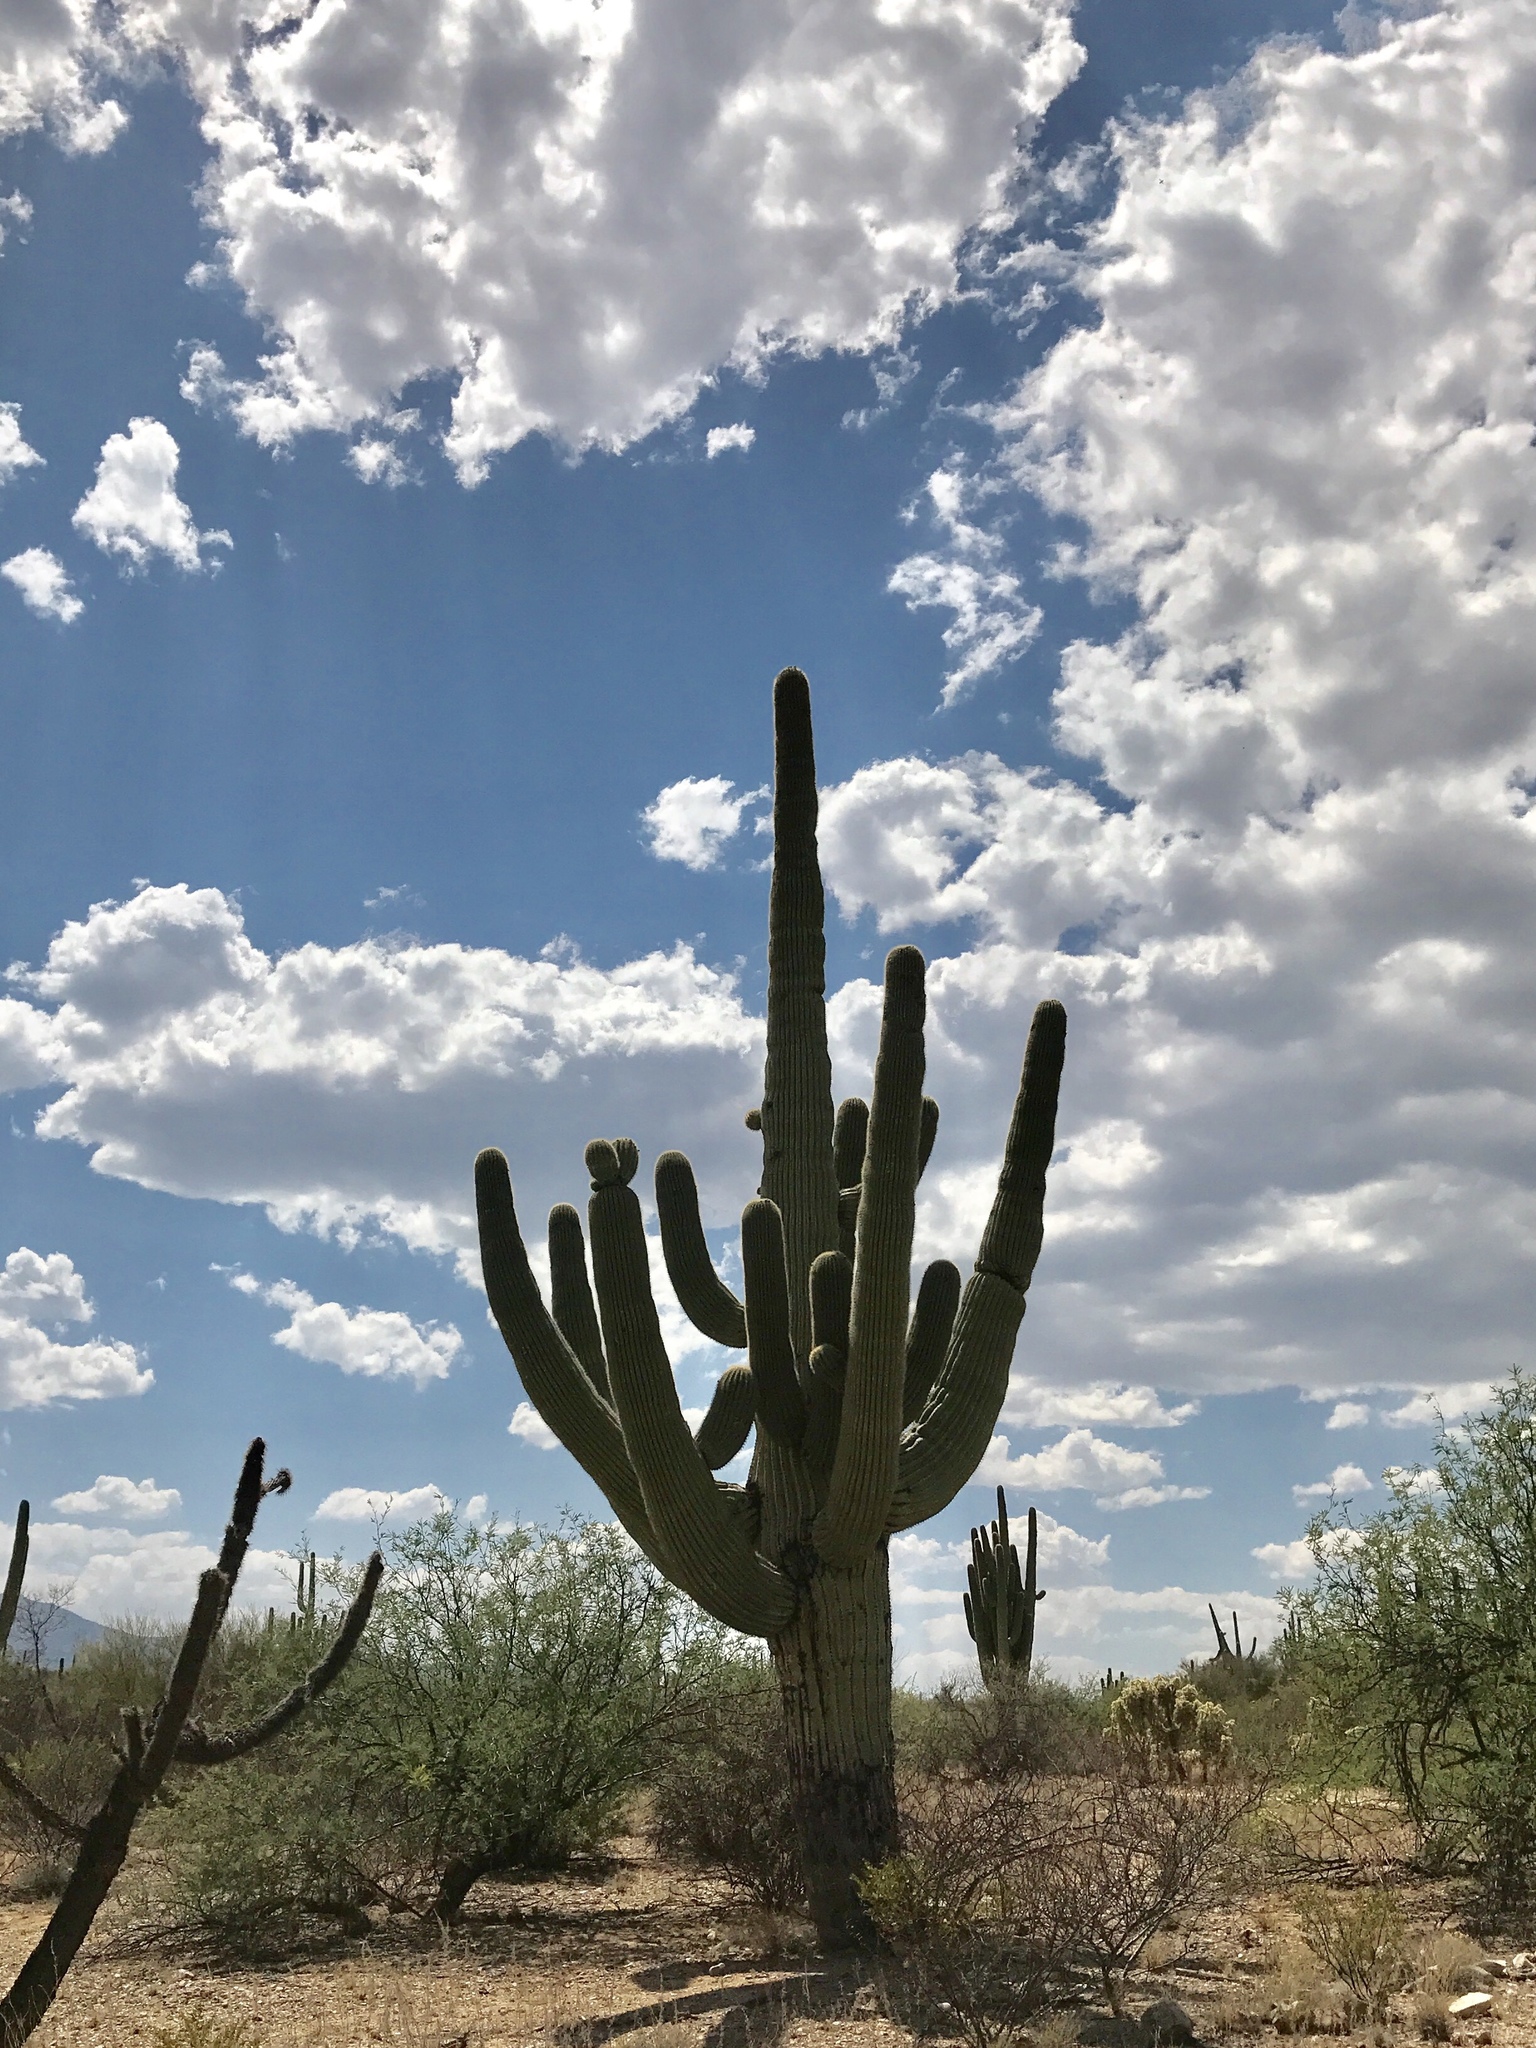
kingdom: Plantae
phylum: Tracheophyta
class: Magnoliopsida
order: Caryophyllales
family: Cactaceae
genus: Carnegiea
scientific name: Carnegiea gigantea
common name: Saguaro
